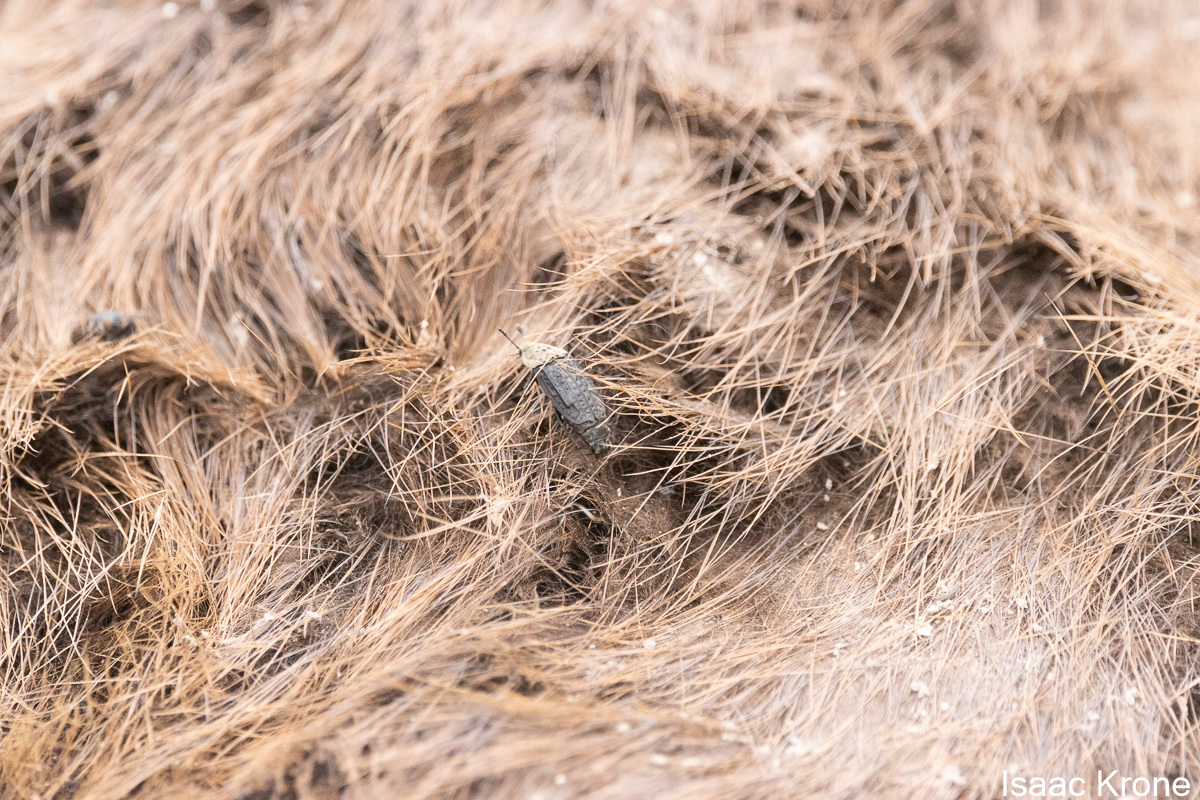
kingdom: Animalia
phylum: Arthropoda
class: Insecta
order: Coleoptera
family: Staphylinidae
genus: Thanatophilus
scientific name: Thanatophilus lapponicus
